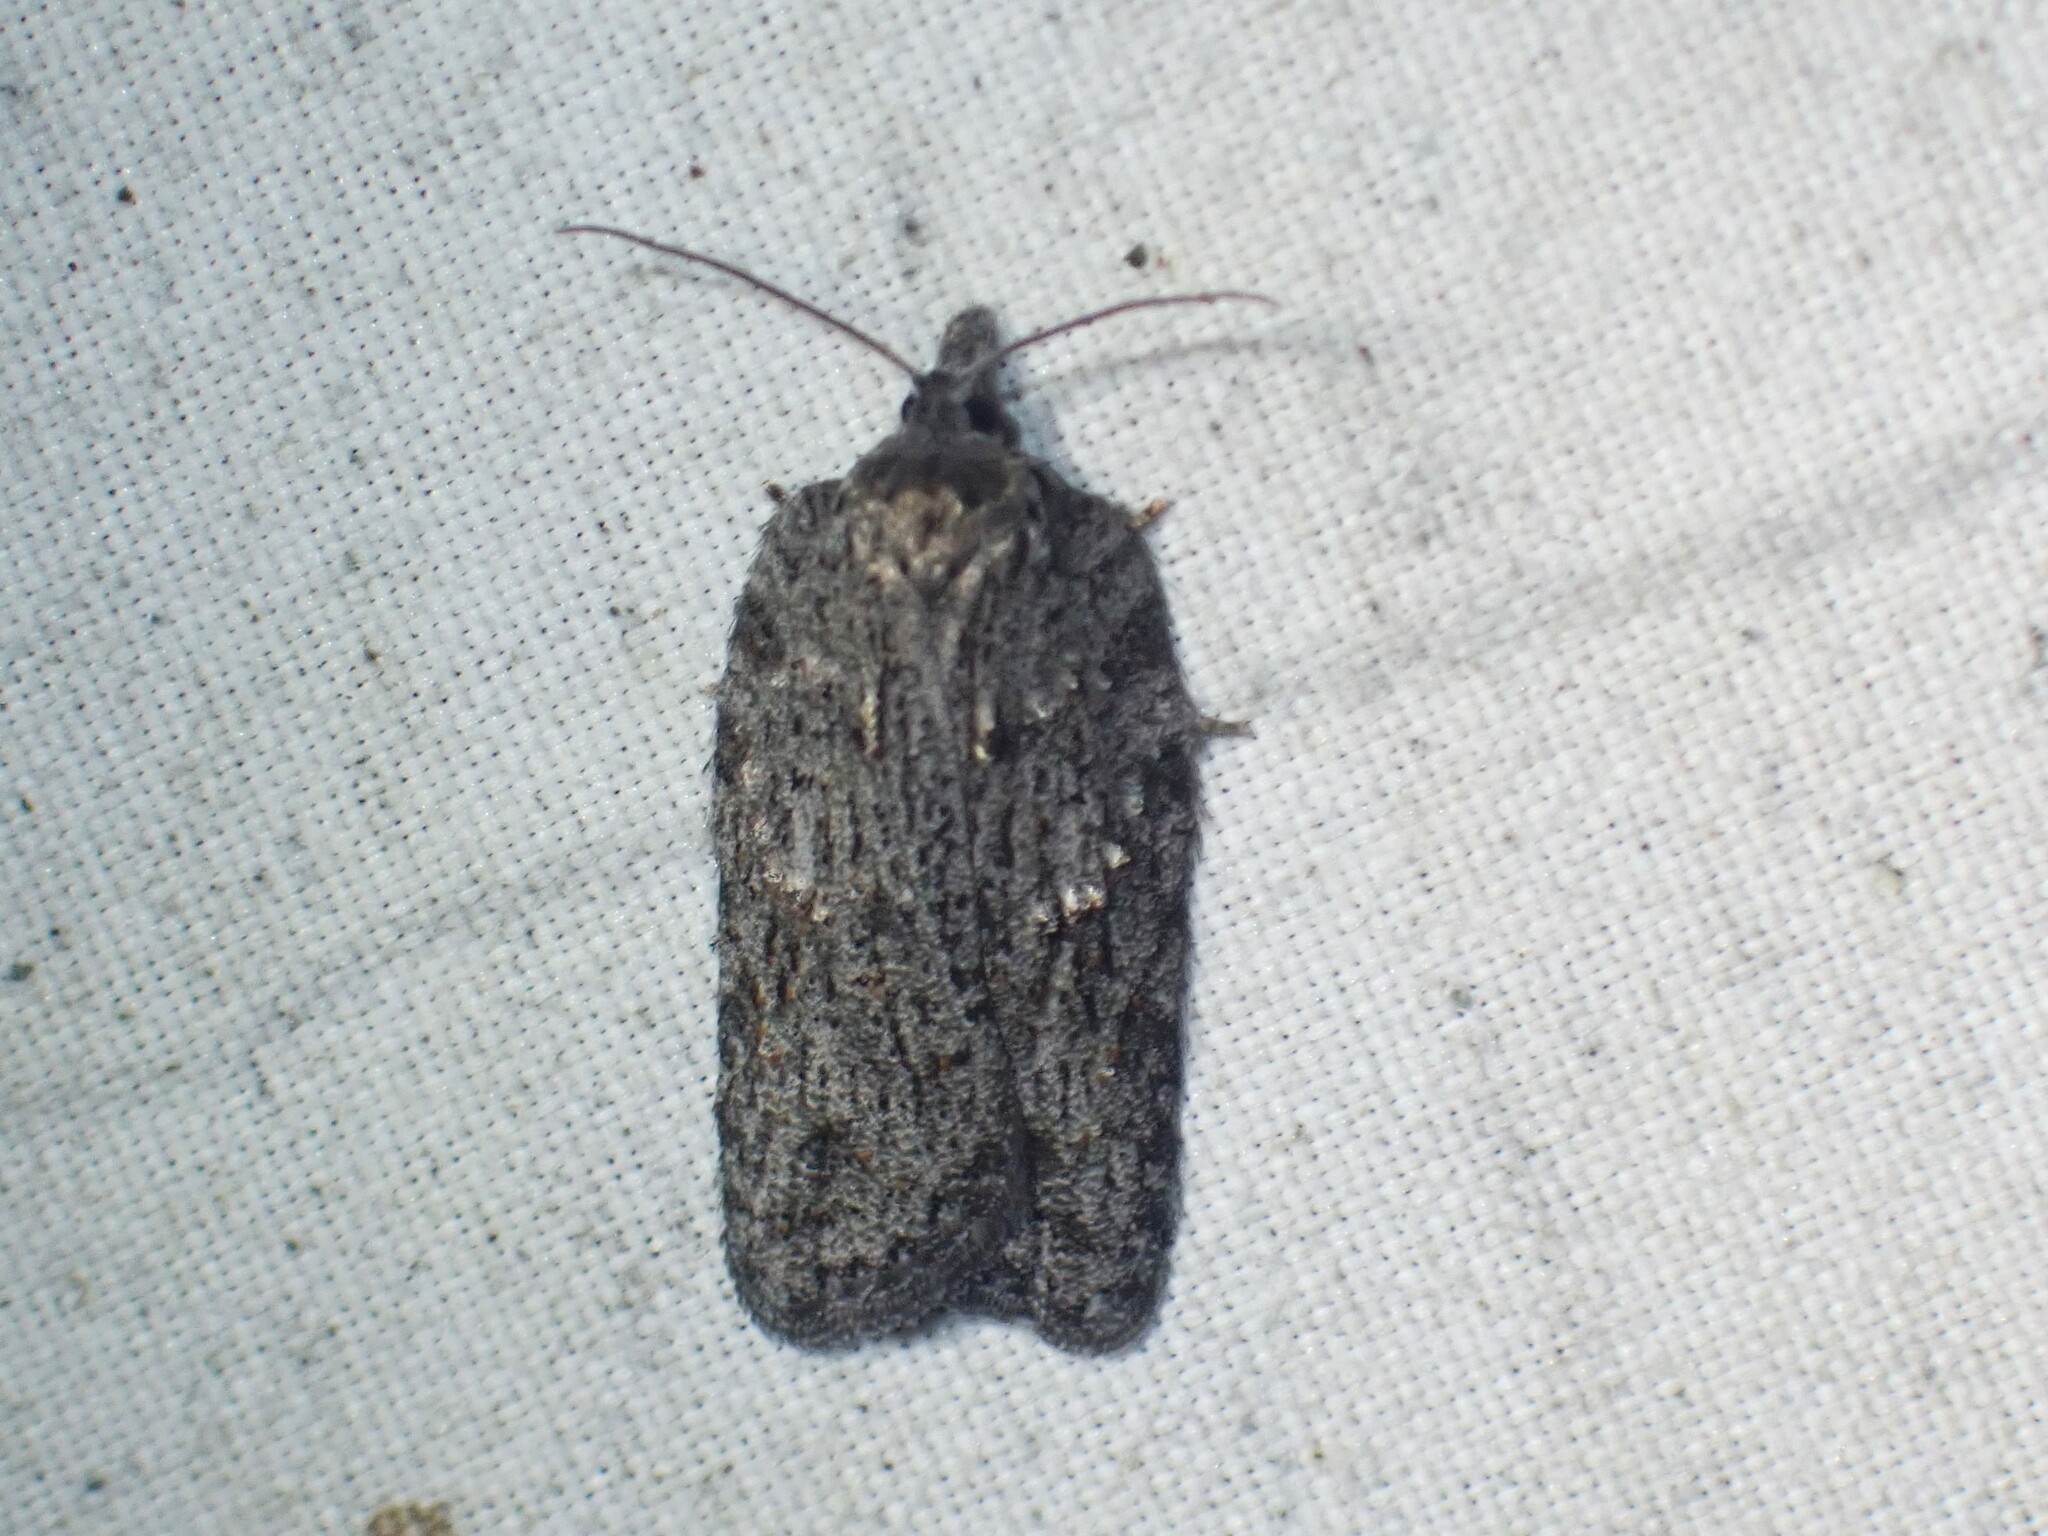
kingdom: Animalia
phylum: Arthropoda
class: Insecta
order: Lepidoptera
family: Tortricidae
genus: Acleris
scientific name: Acleris maximana
